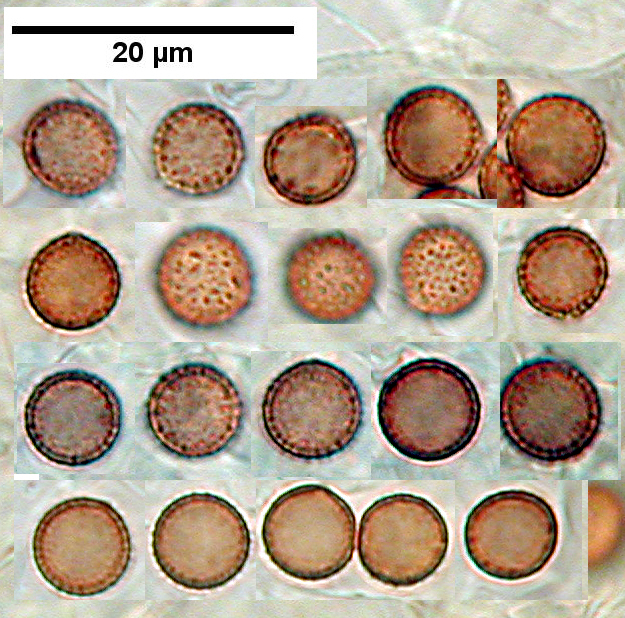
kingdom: Fungi
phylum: Basidiomycota
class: Agaricomycetes
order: Agaricales
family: Crepidotaceae
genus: Crepidotus
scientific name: Crepidotus dilutus
